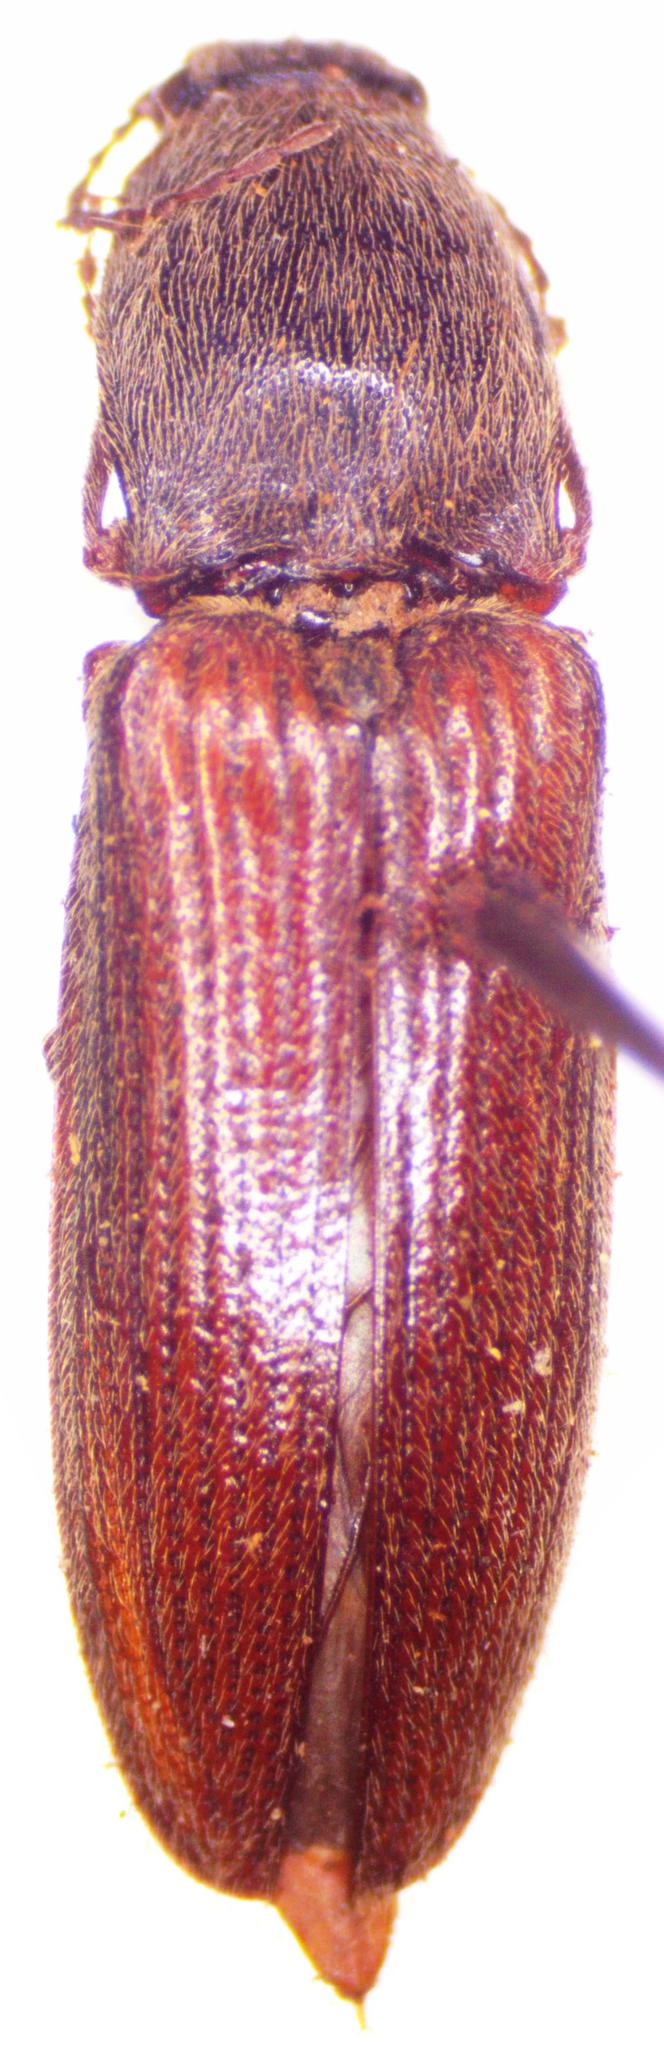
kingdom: Animalia
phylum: Arthropoda
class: Insecta
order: Coleoptera
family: Elateridae
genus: Athous
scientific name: Athous haemorrhoidalis
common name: Red-brown click beetle
